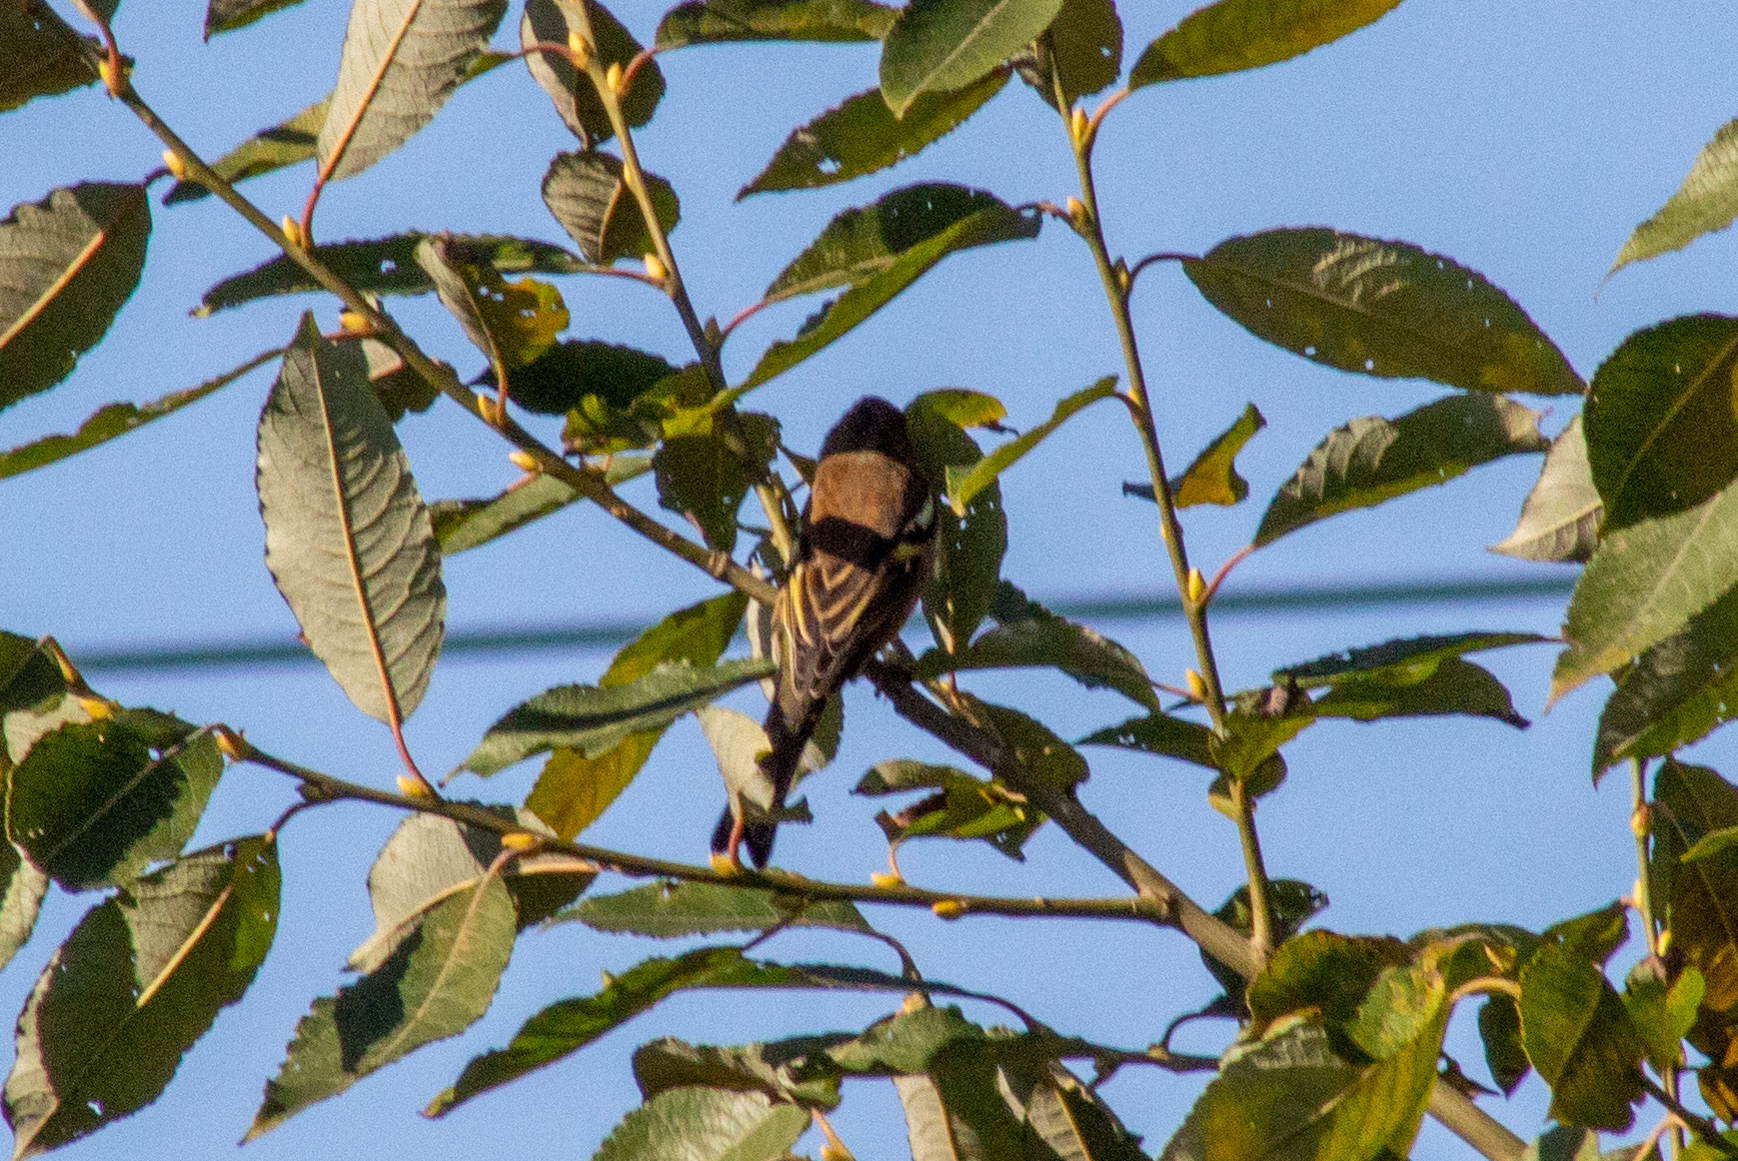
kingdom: Animalia
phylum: Chordata
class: Aves
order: Passeriformes
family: Fringillidae
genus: Fringilla
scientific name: Fringilla coelebs
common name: Common chaffinch
